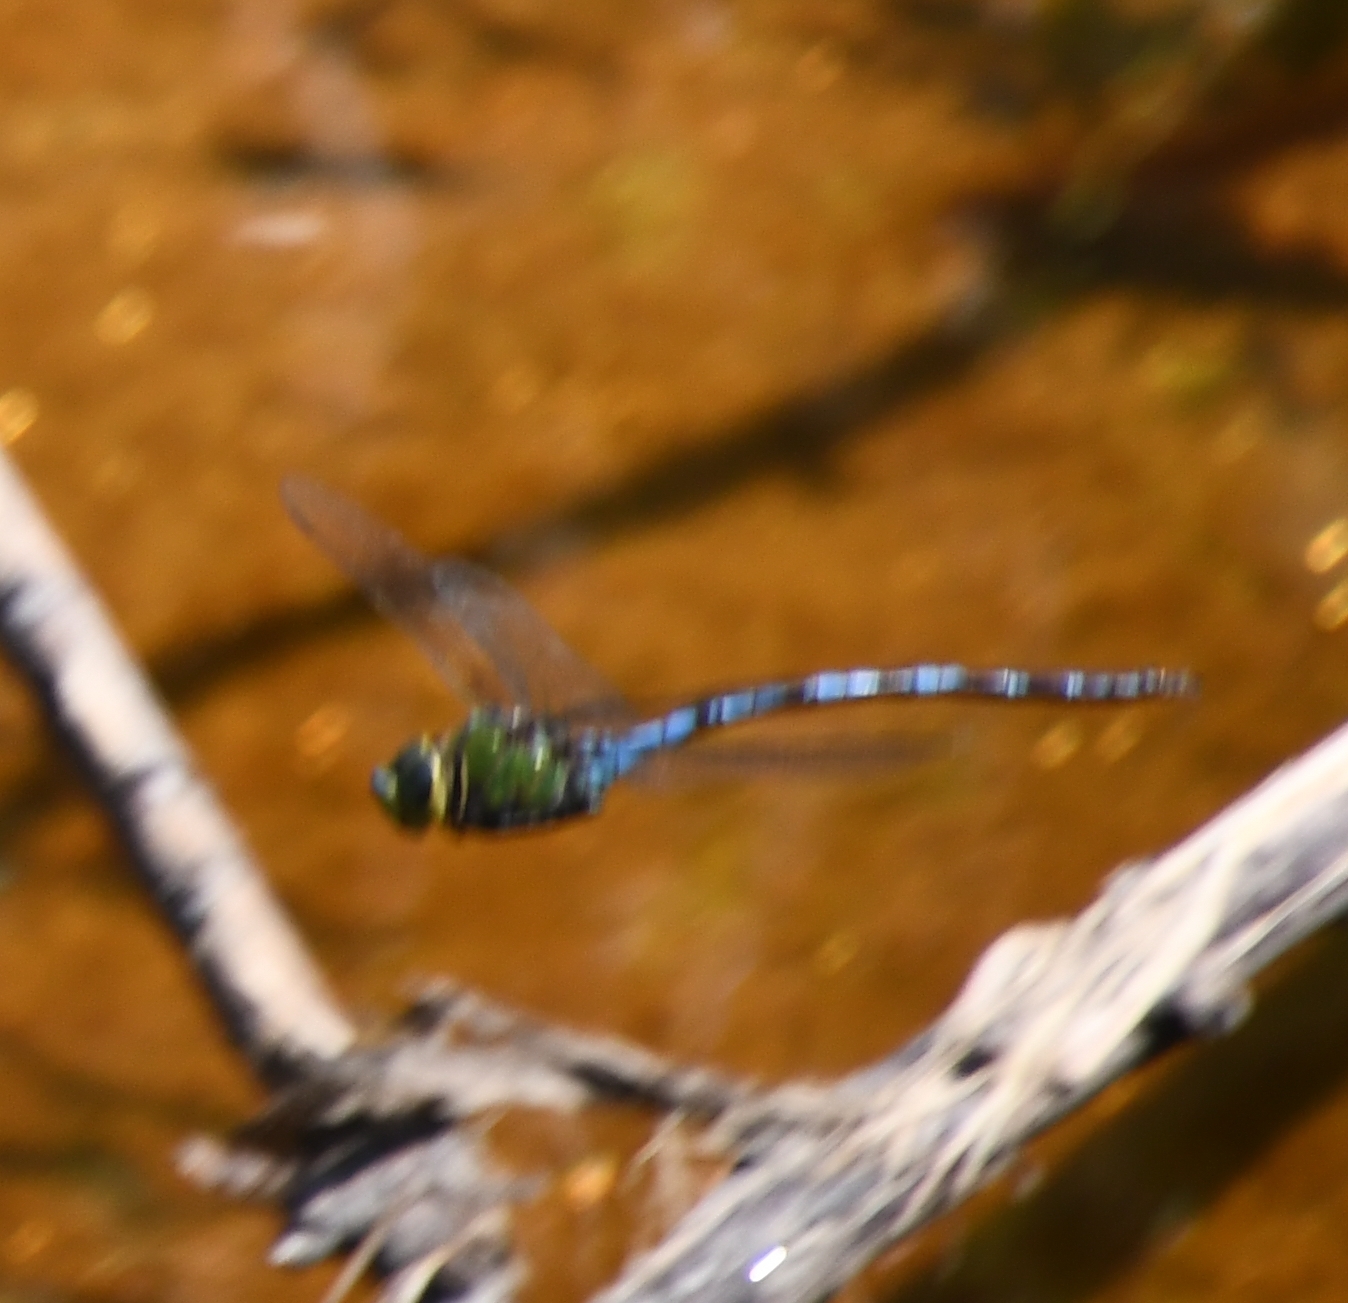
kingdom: Animalia
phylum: Arthropoda
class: Insecta
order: Odonata
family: Aeshnidae
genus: Anax
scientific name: Anax walsinghami
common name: Giant darner
